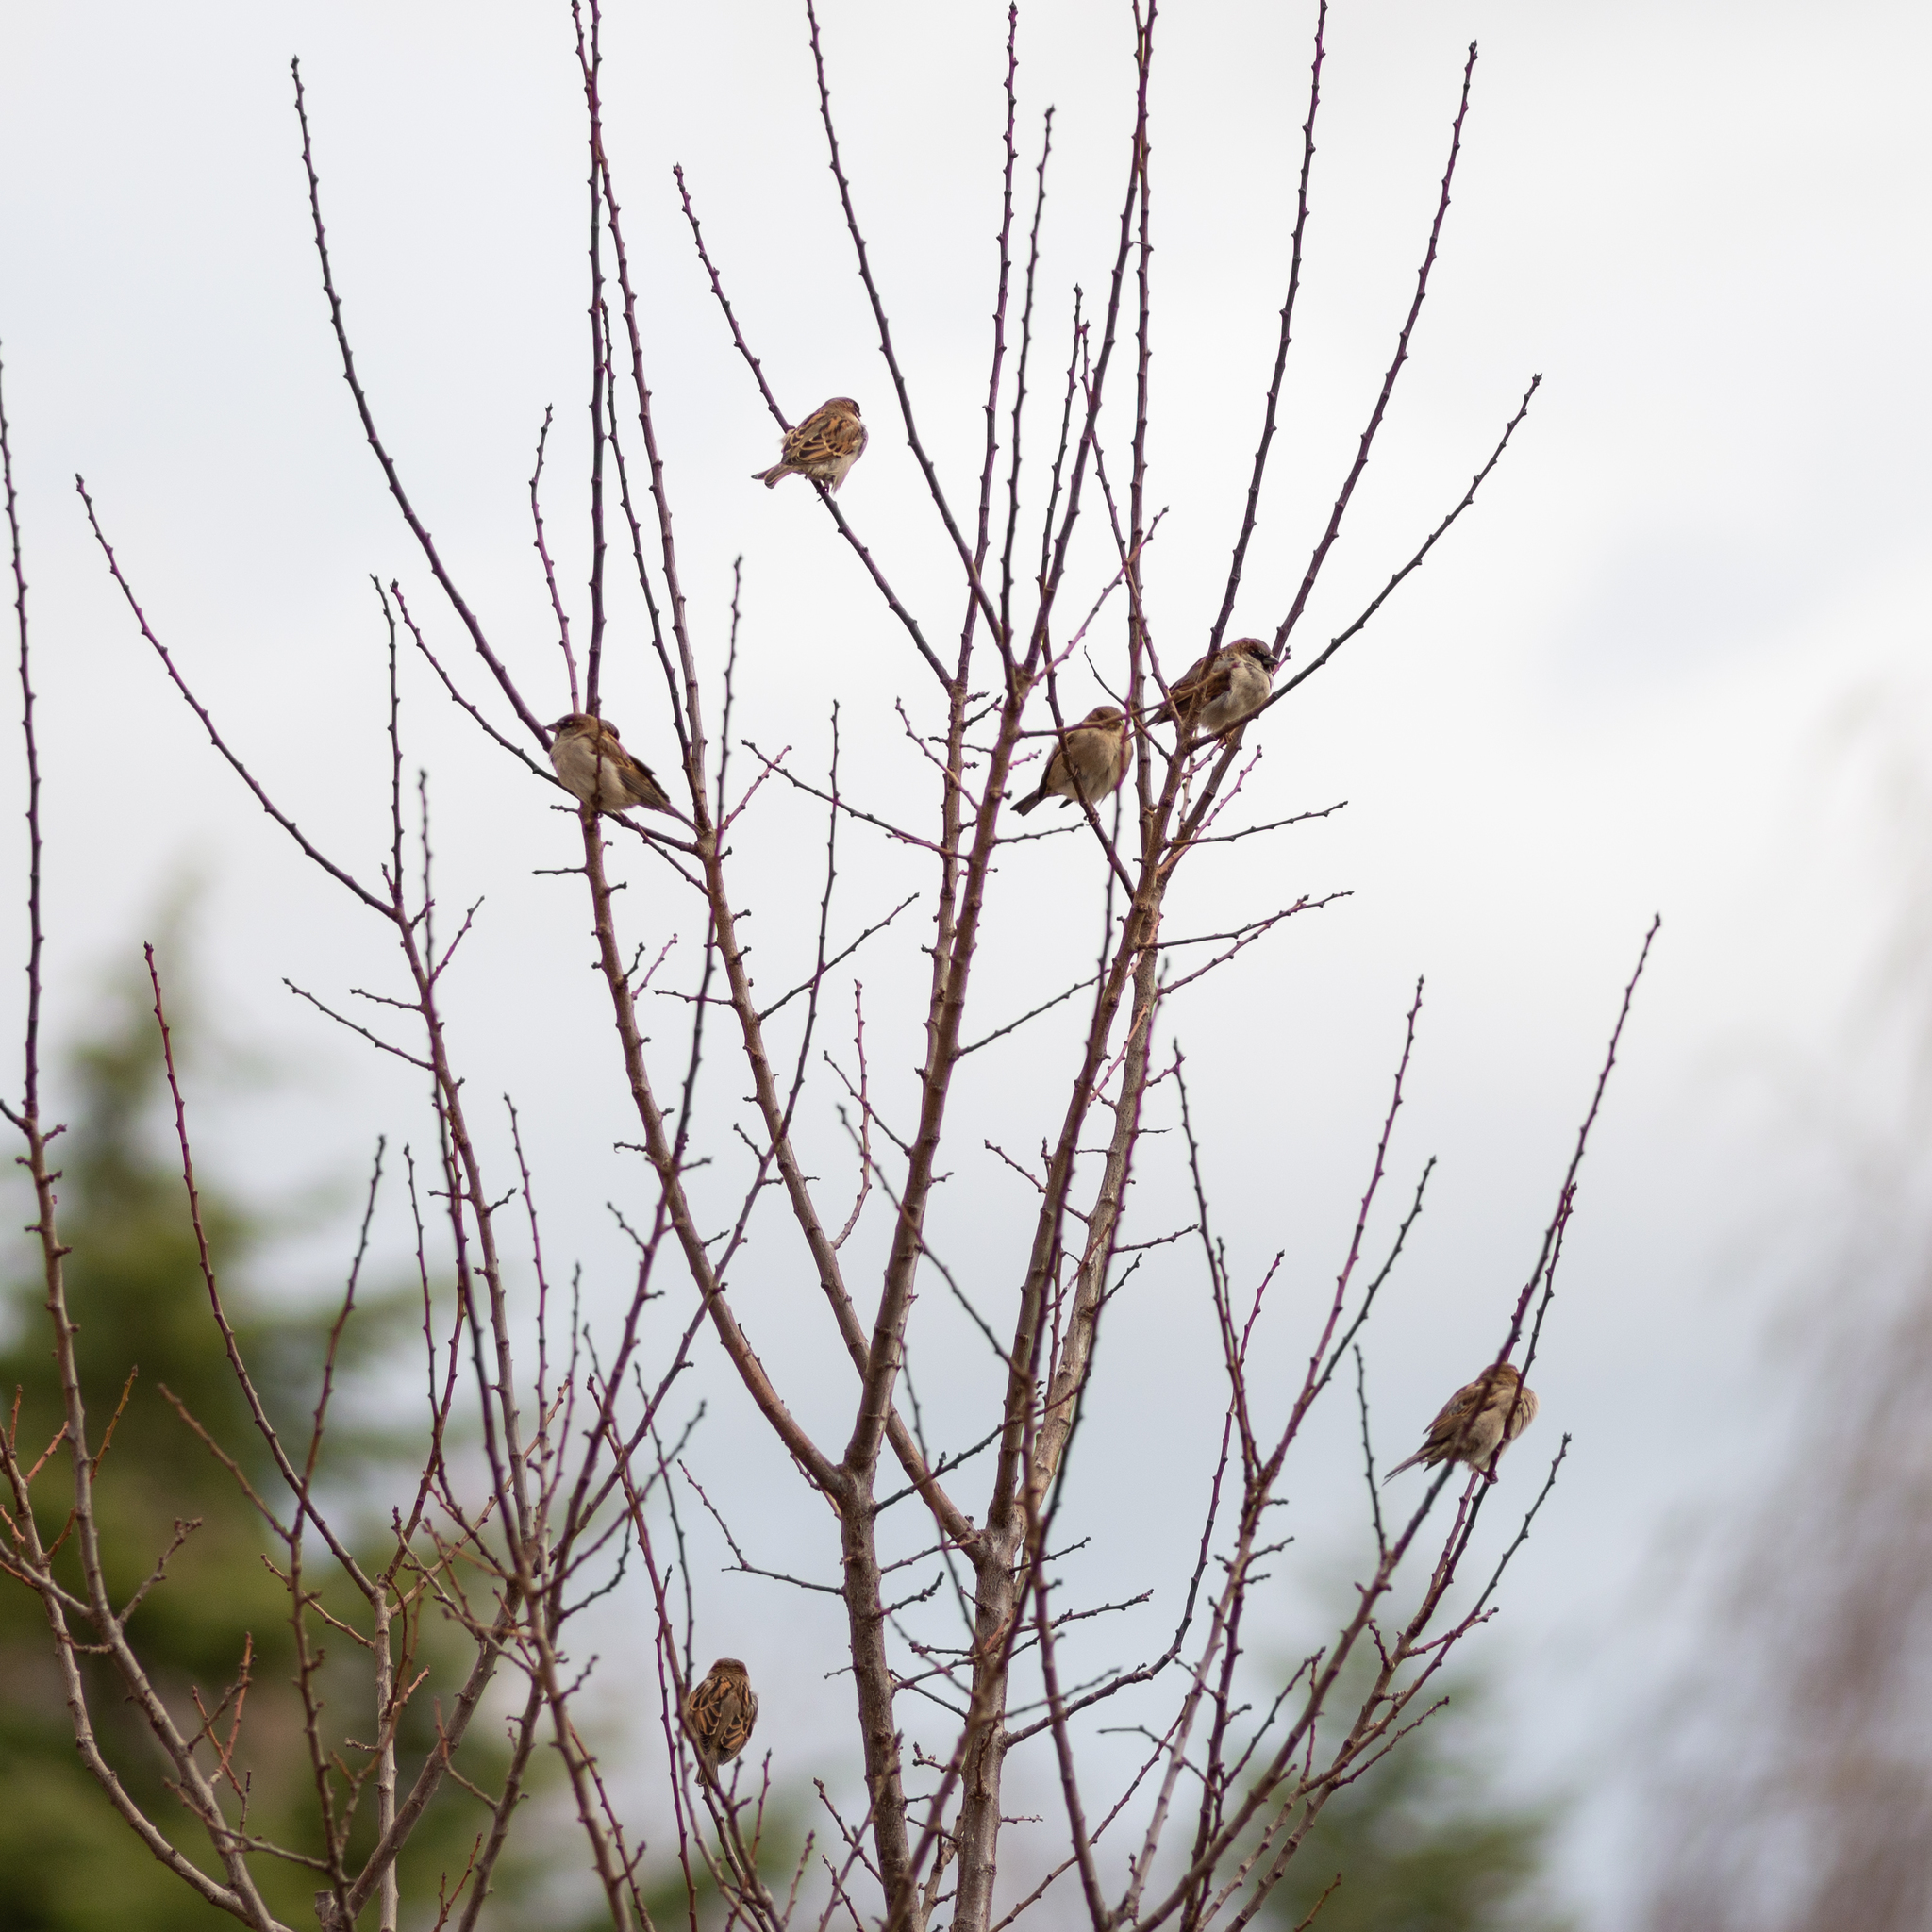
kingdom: Animalia
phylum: Chordata
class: Aves
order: Passeriformes
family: Passeridae
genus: Passer
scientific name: Passer domesticus
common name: House sparrow
